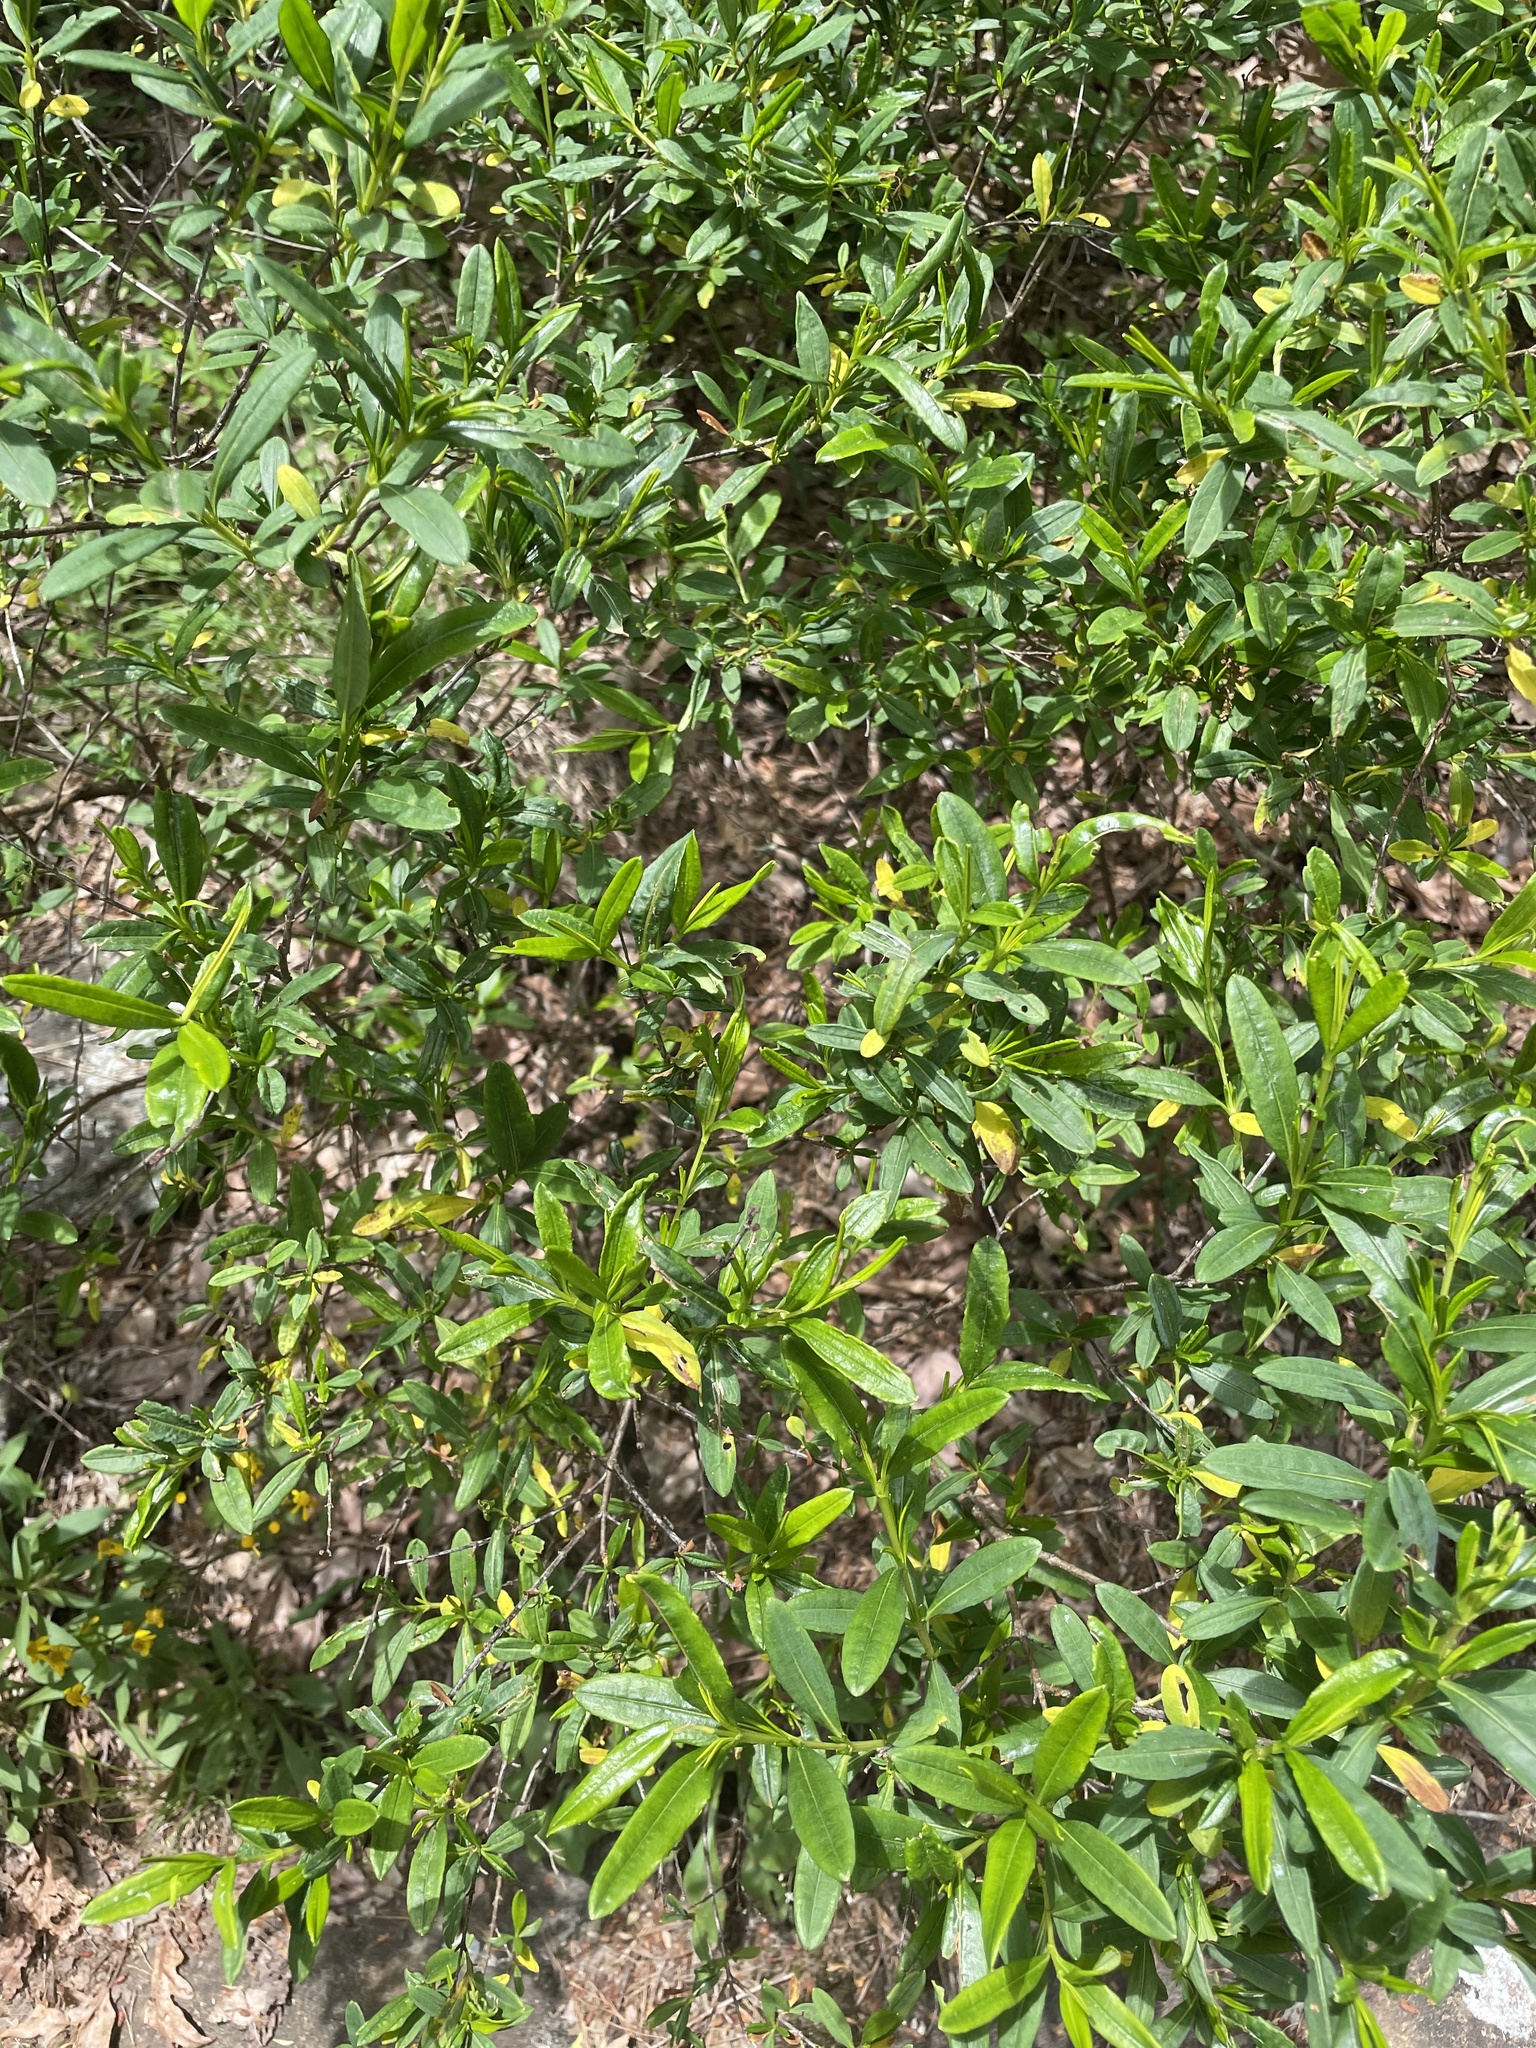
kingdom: Plantae
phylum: Tracheophyta
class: Magnoliopsida
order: Malpighiales
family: Hypericaceae
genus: Hypericum
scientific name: Hypericum prolificum
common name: Shrubby st. john's-wort
